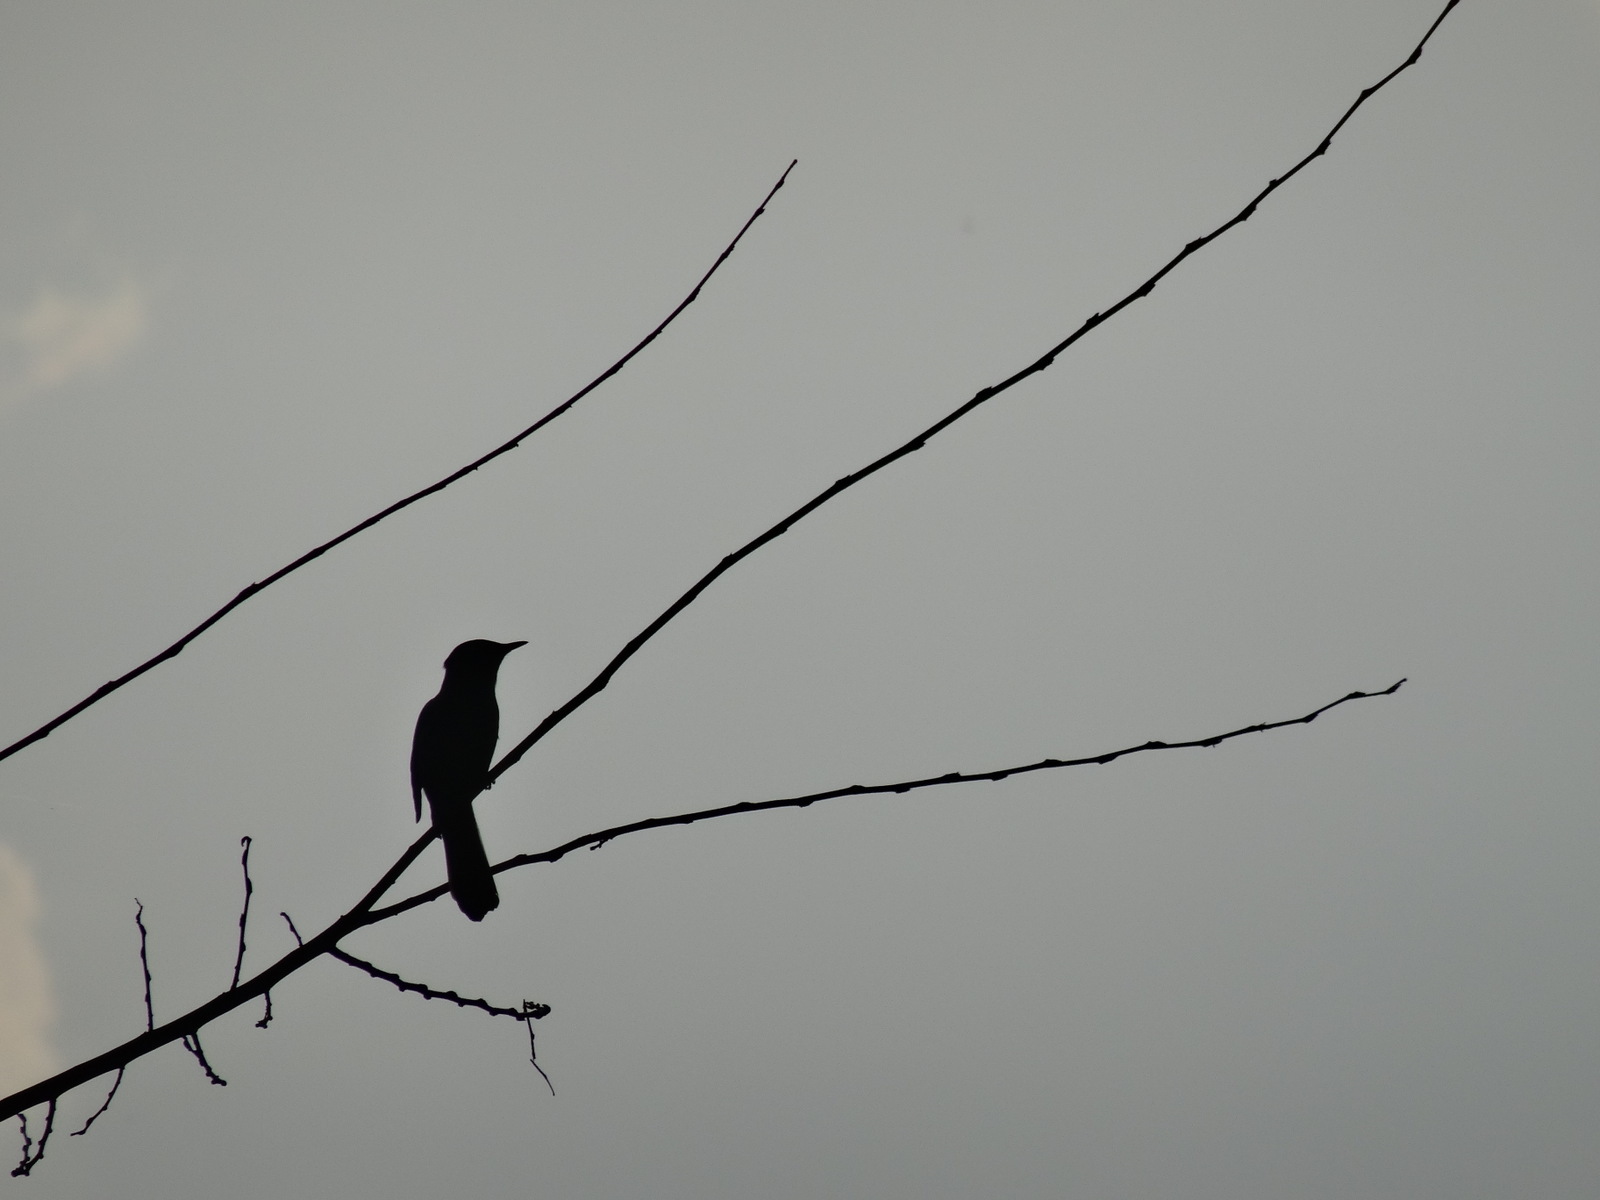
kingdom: Animalia
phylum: Chordata
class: Aves
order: Passeriformes
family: Mimidae
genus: Dumetella
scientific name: Dumetella carolinensis
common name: Gray catbird
